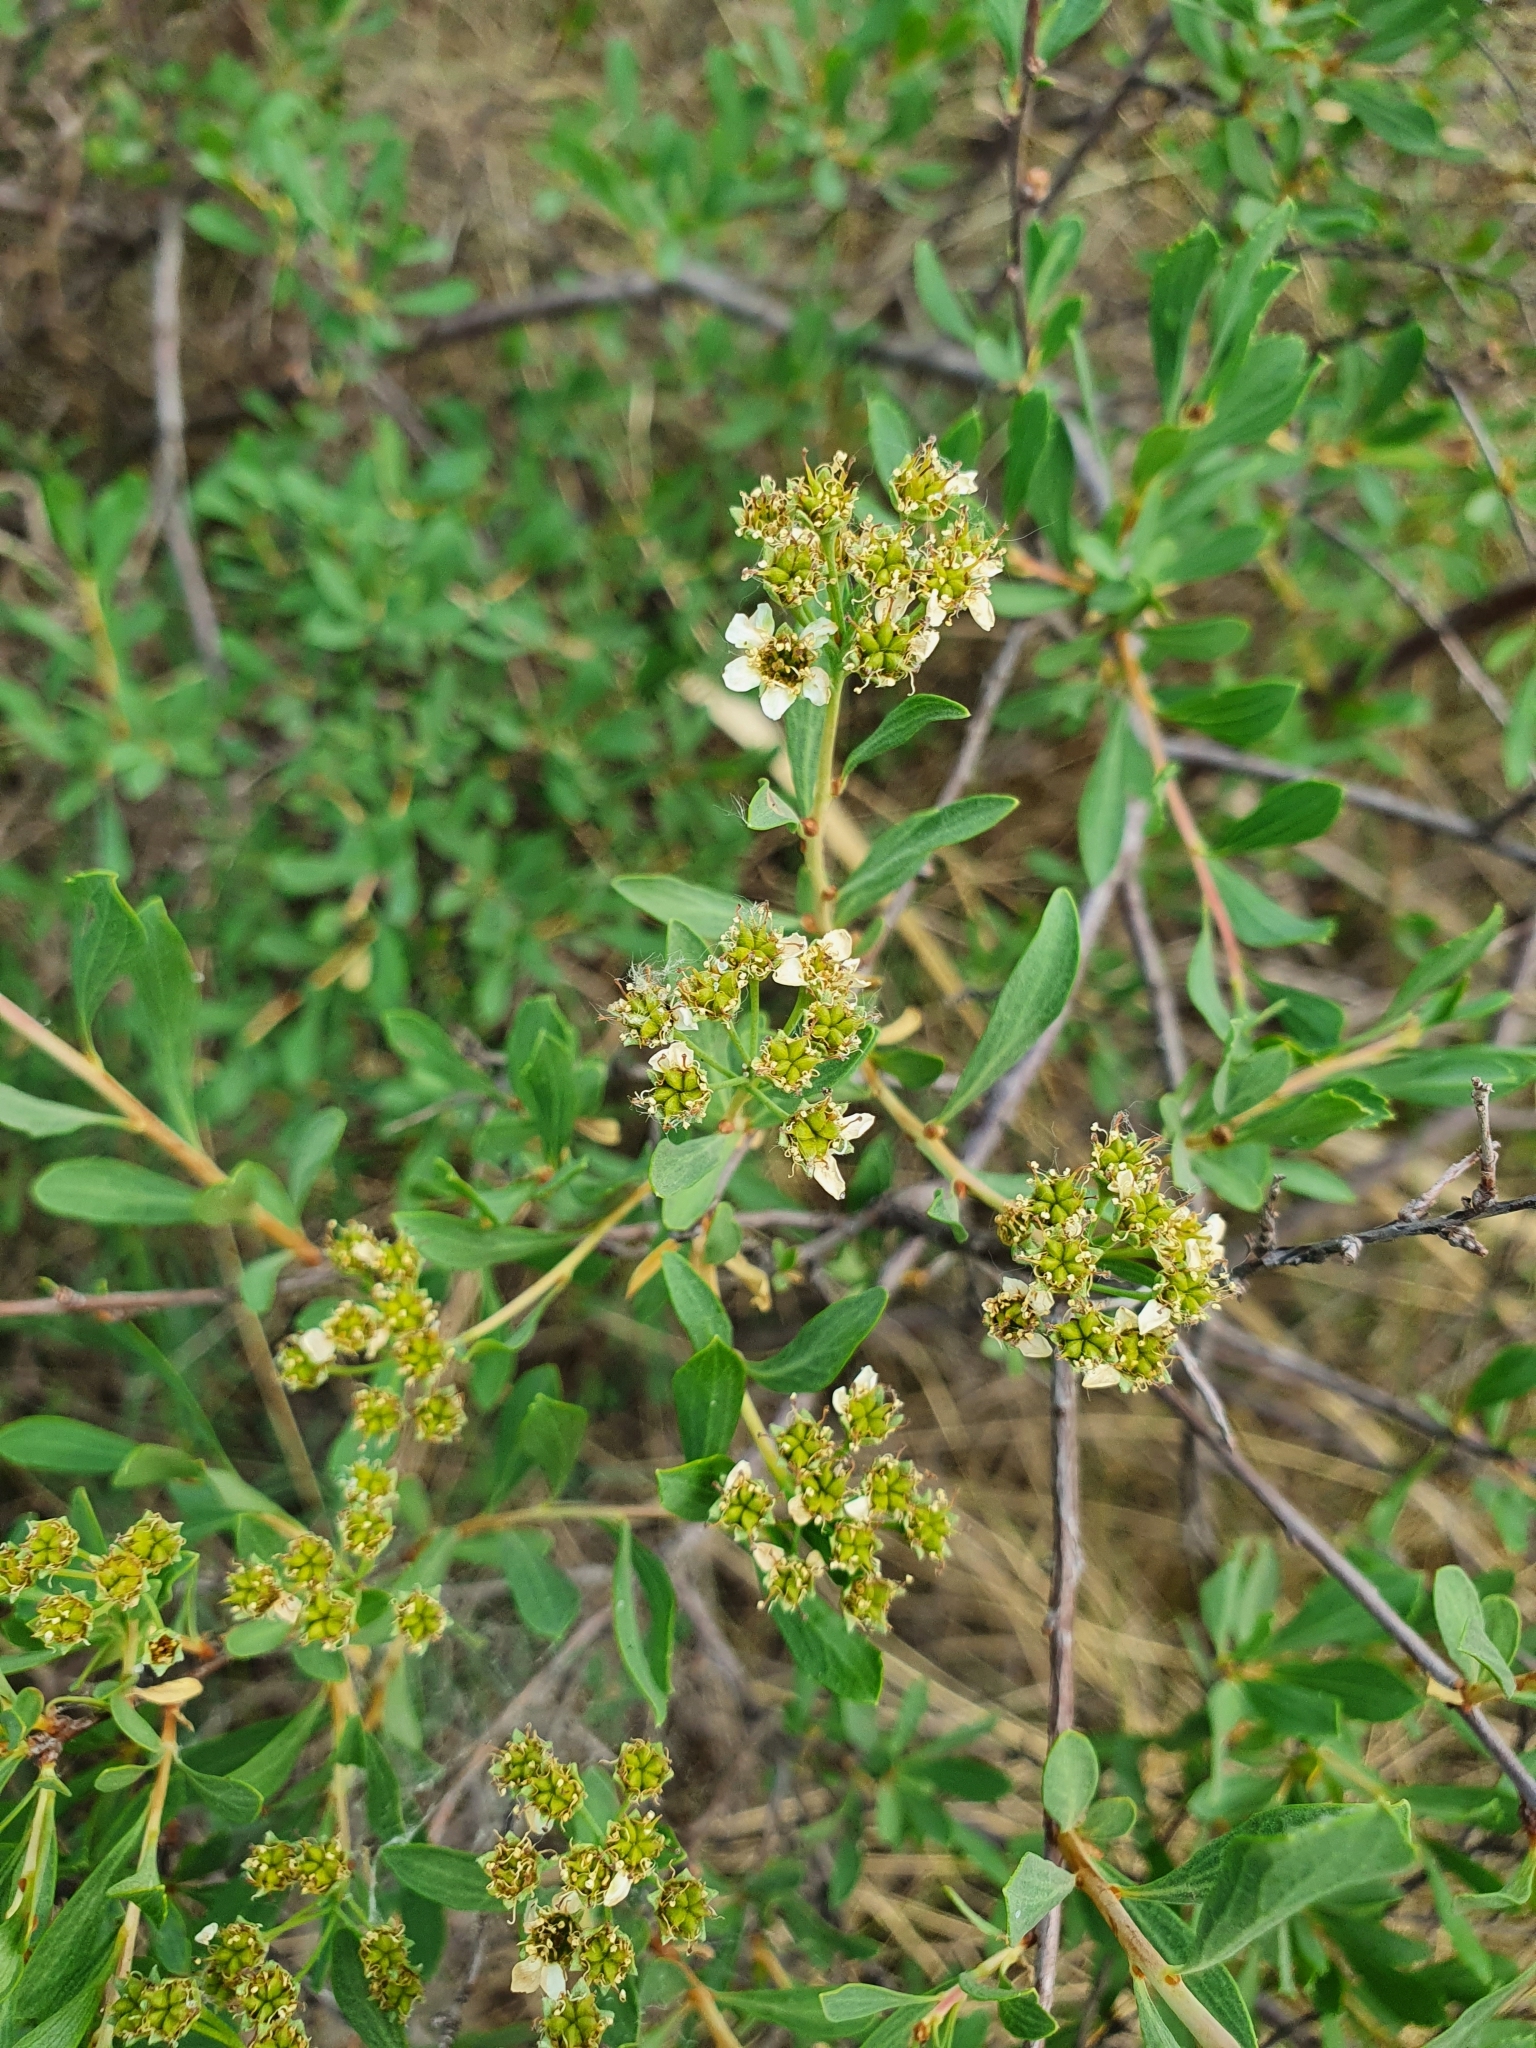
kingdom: Plantae
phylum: Tracheophyta
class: Magnoliopsida
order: Rosales
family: Rosaceae
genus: Spiraea
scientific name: Spiraea crenata
